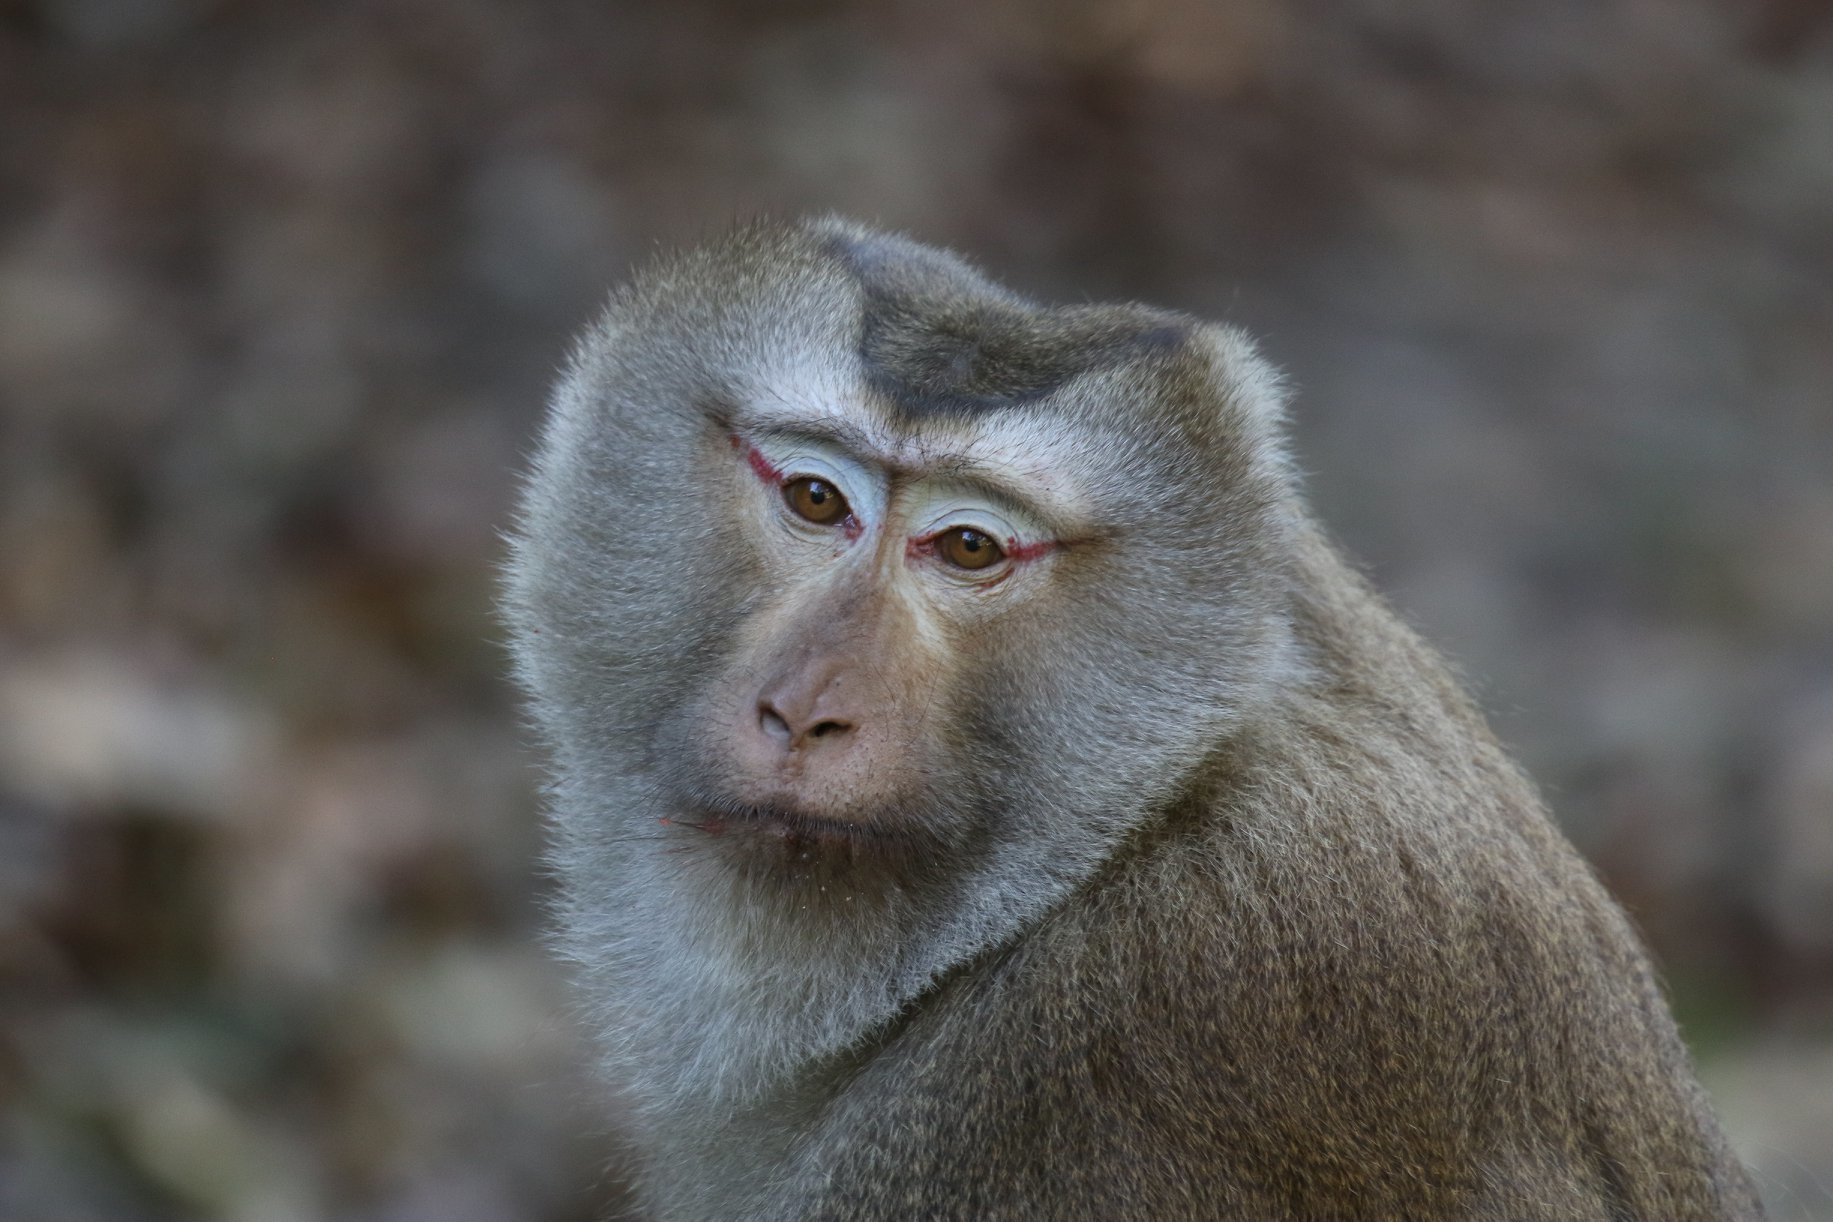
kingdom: Animalia
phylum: Chordata
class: Mammalia
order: Primates
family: Cercopithecidae
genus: Macaca
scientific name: Macaca leonina
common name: Northern pig-tailed macaque
